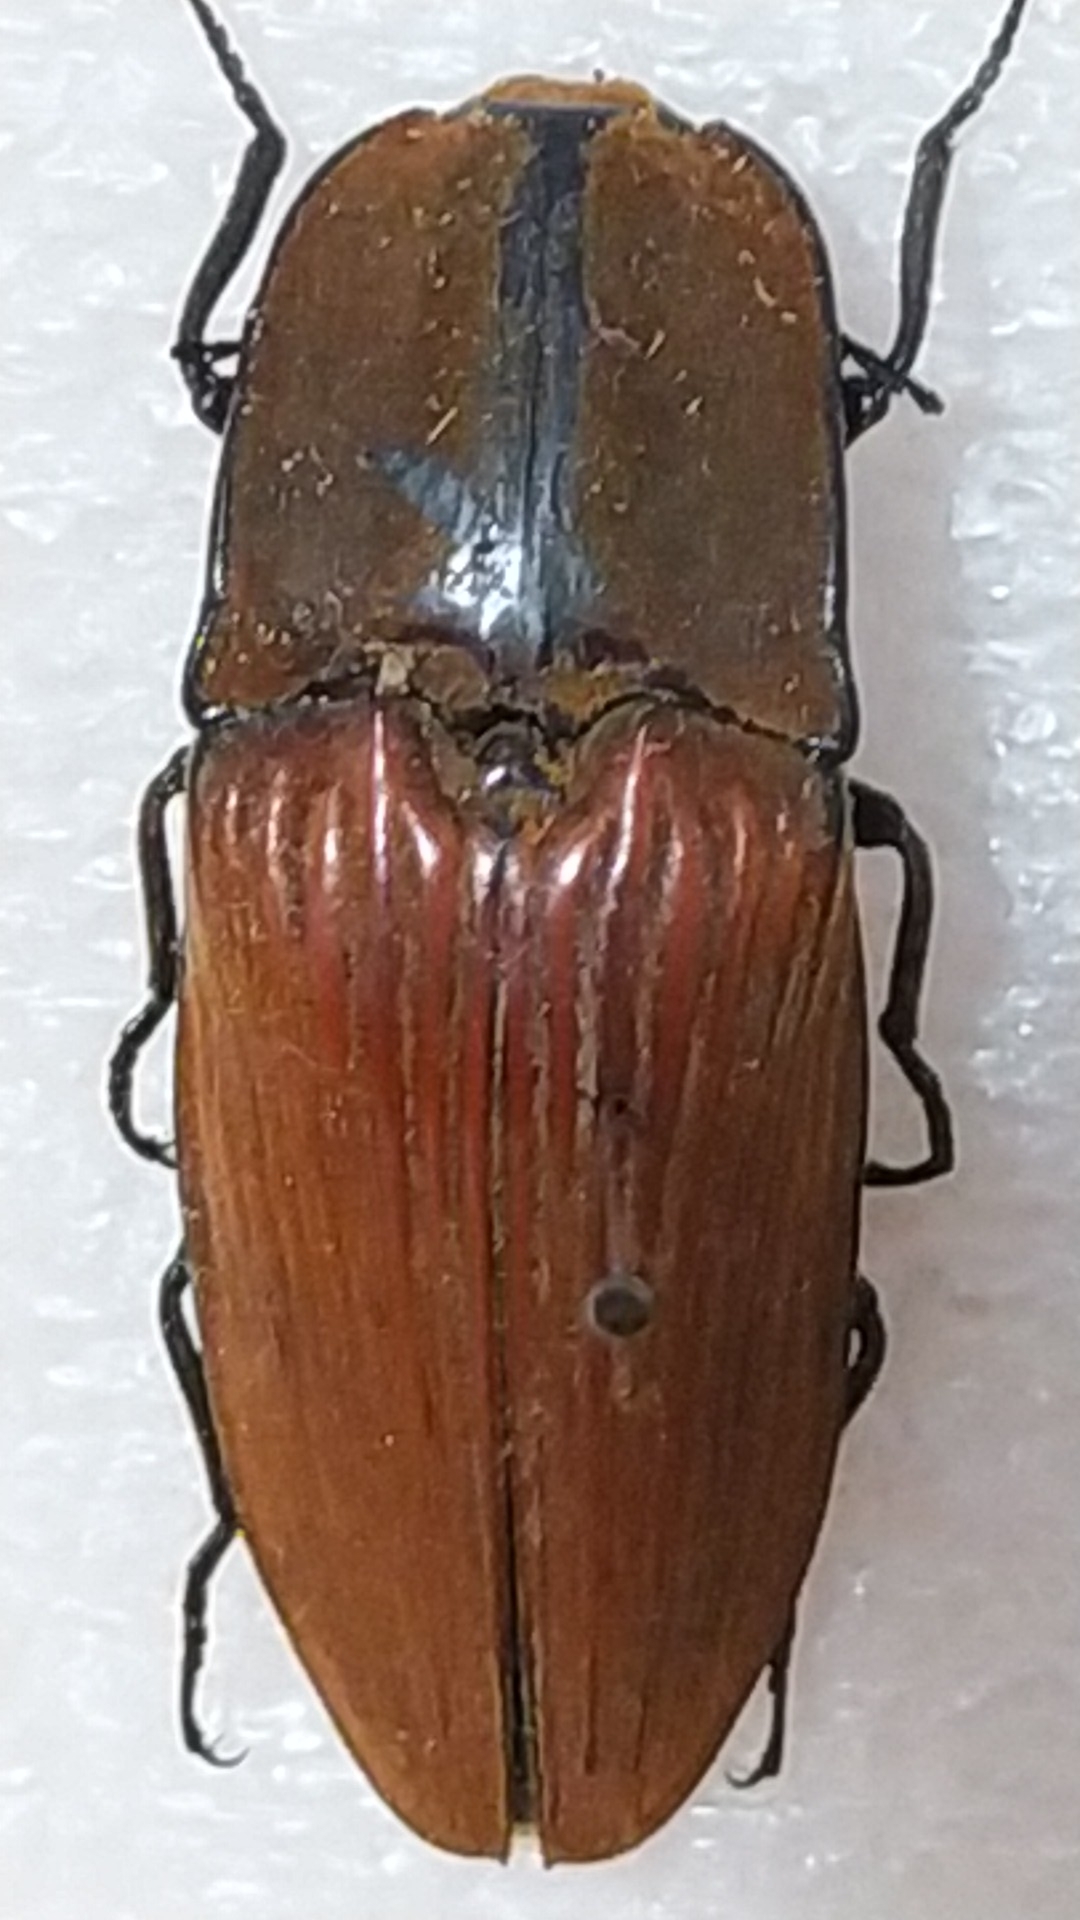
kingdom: Animalia
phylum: Arthropoda
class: Insecta
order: Coleoptera
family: Elateridae
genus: Chalcolepidius
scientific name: Chalcolepidius
